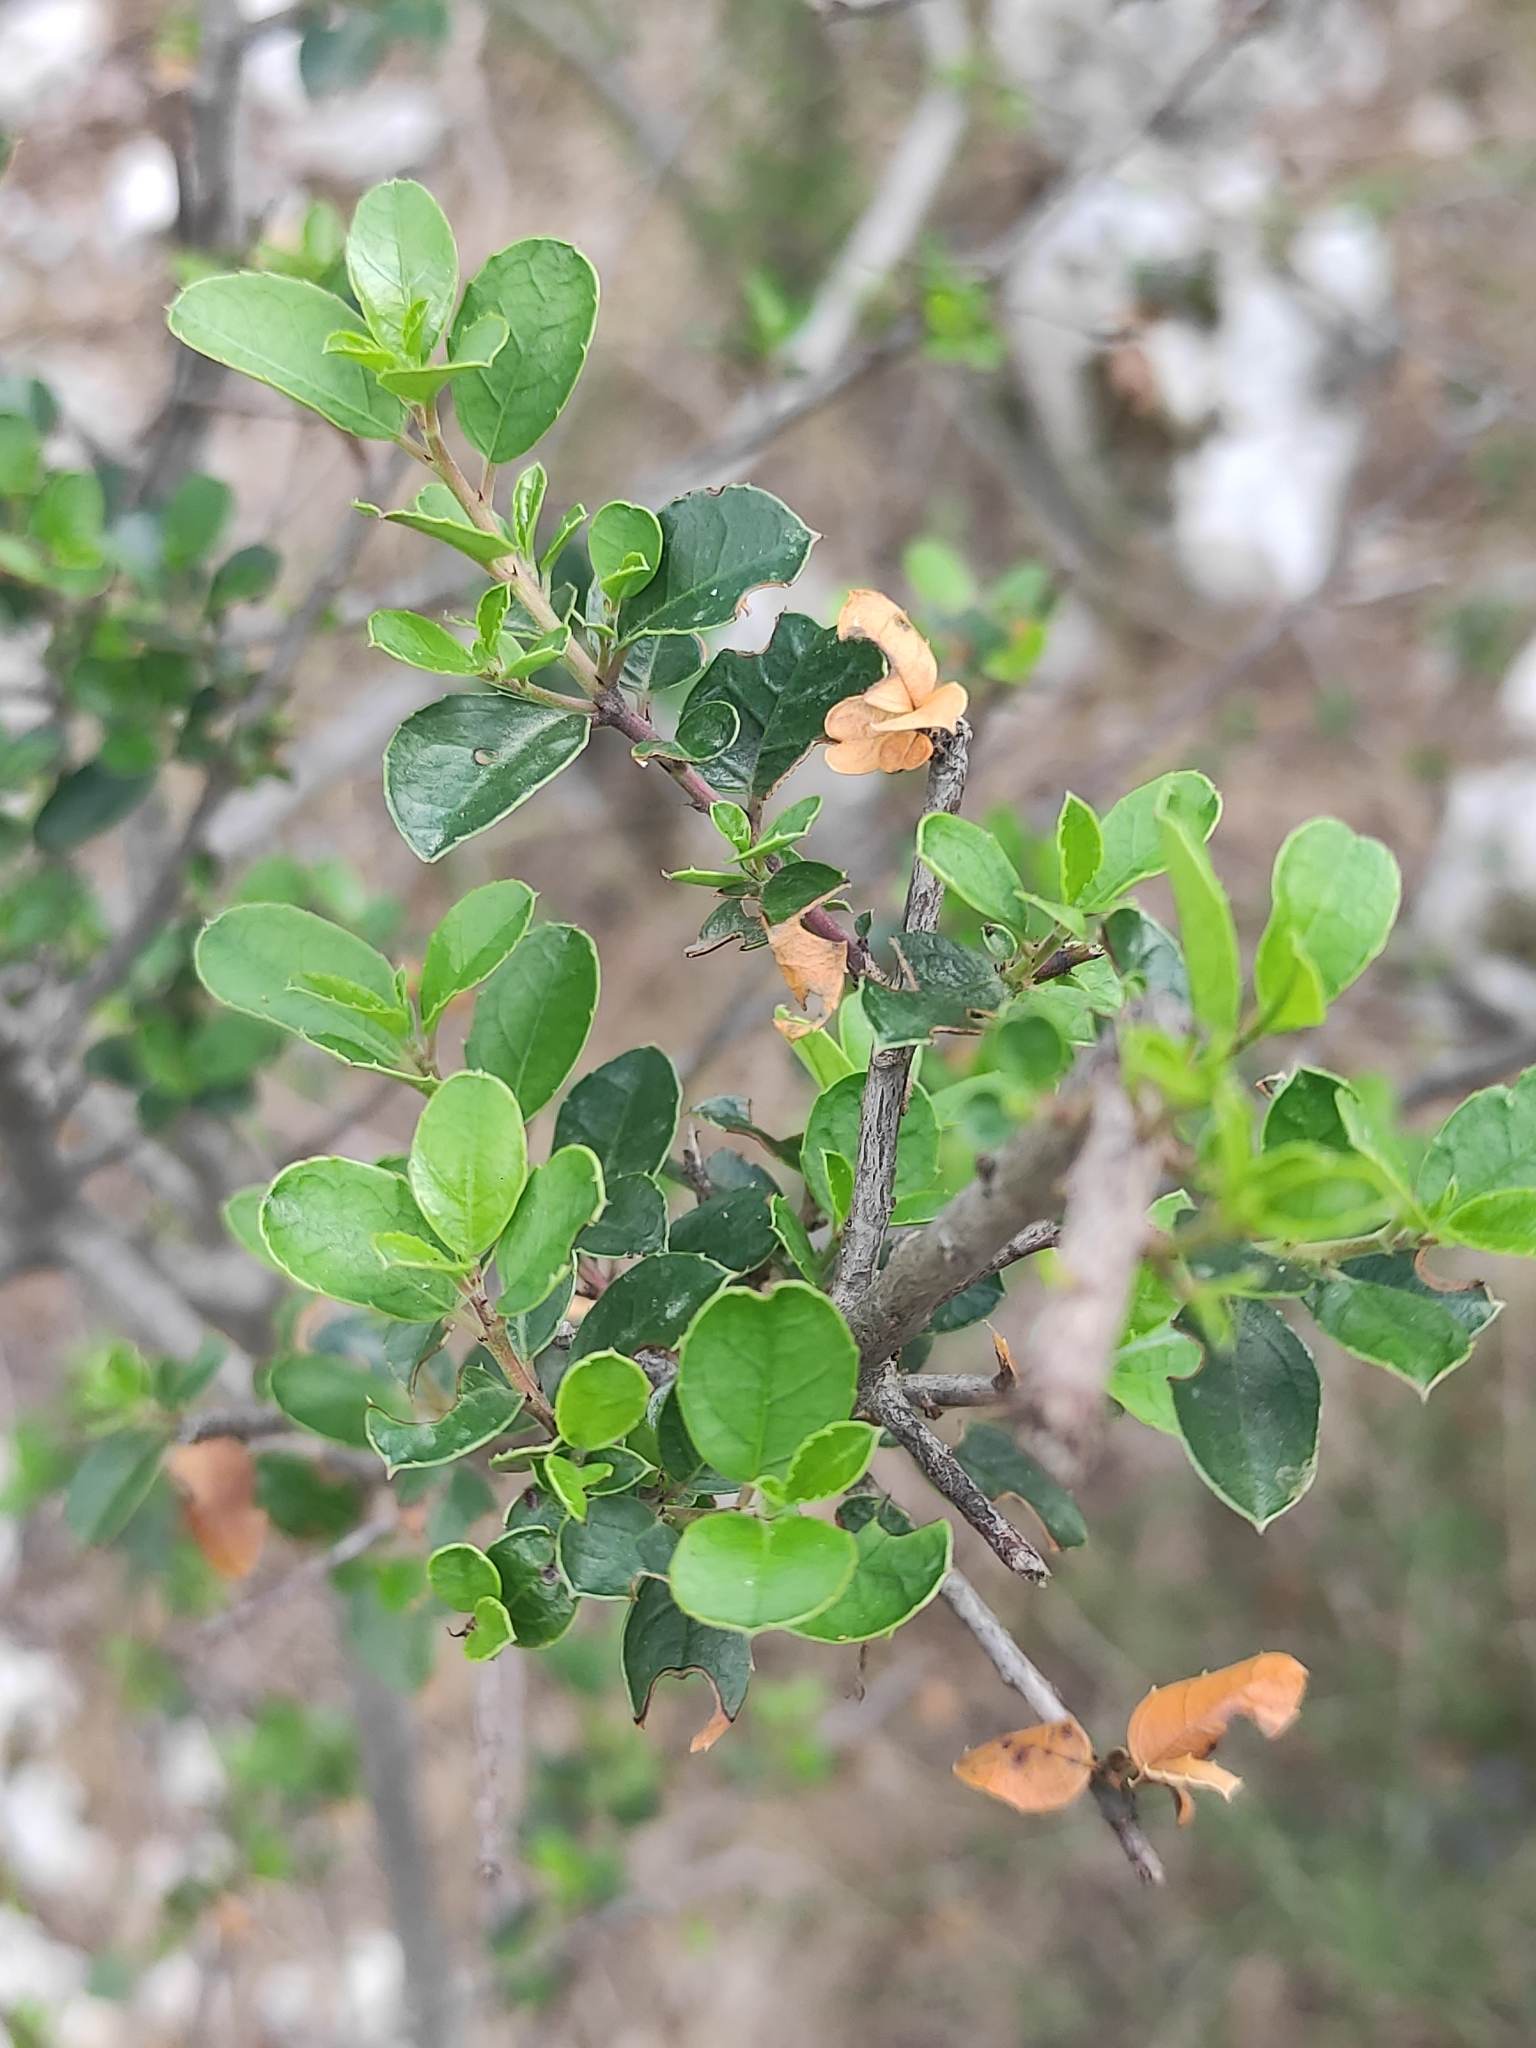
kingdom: Plantae
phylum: Tracheophyta
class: Magnoliopsida
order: Rosales
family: Rhamnaceae
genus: Rhamnus
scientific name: Rhamnus alaternus
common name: Mediterranean buckthorn
